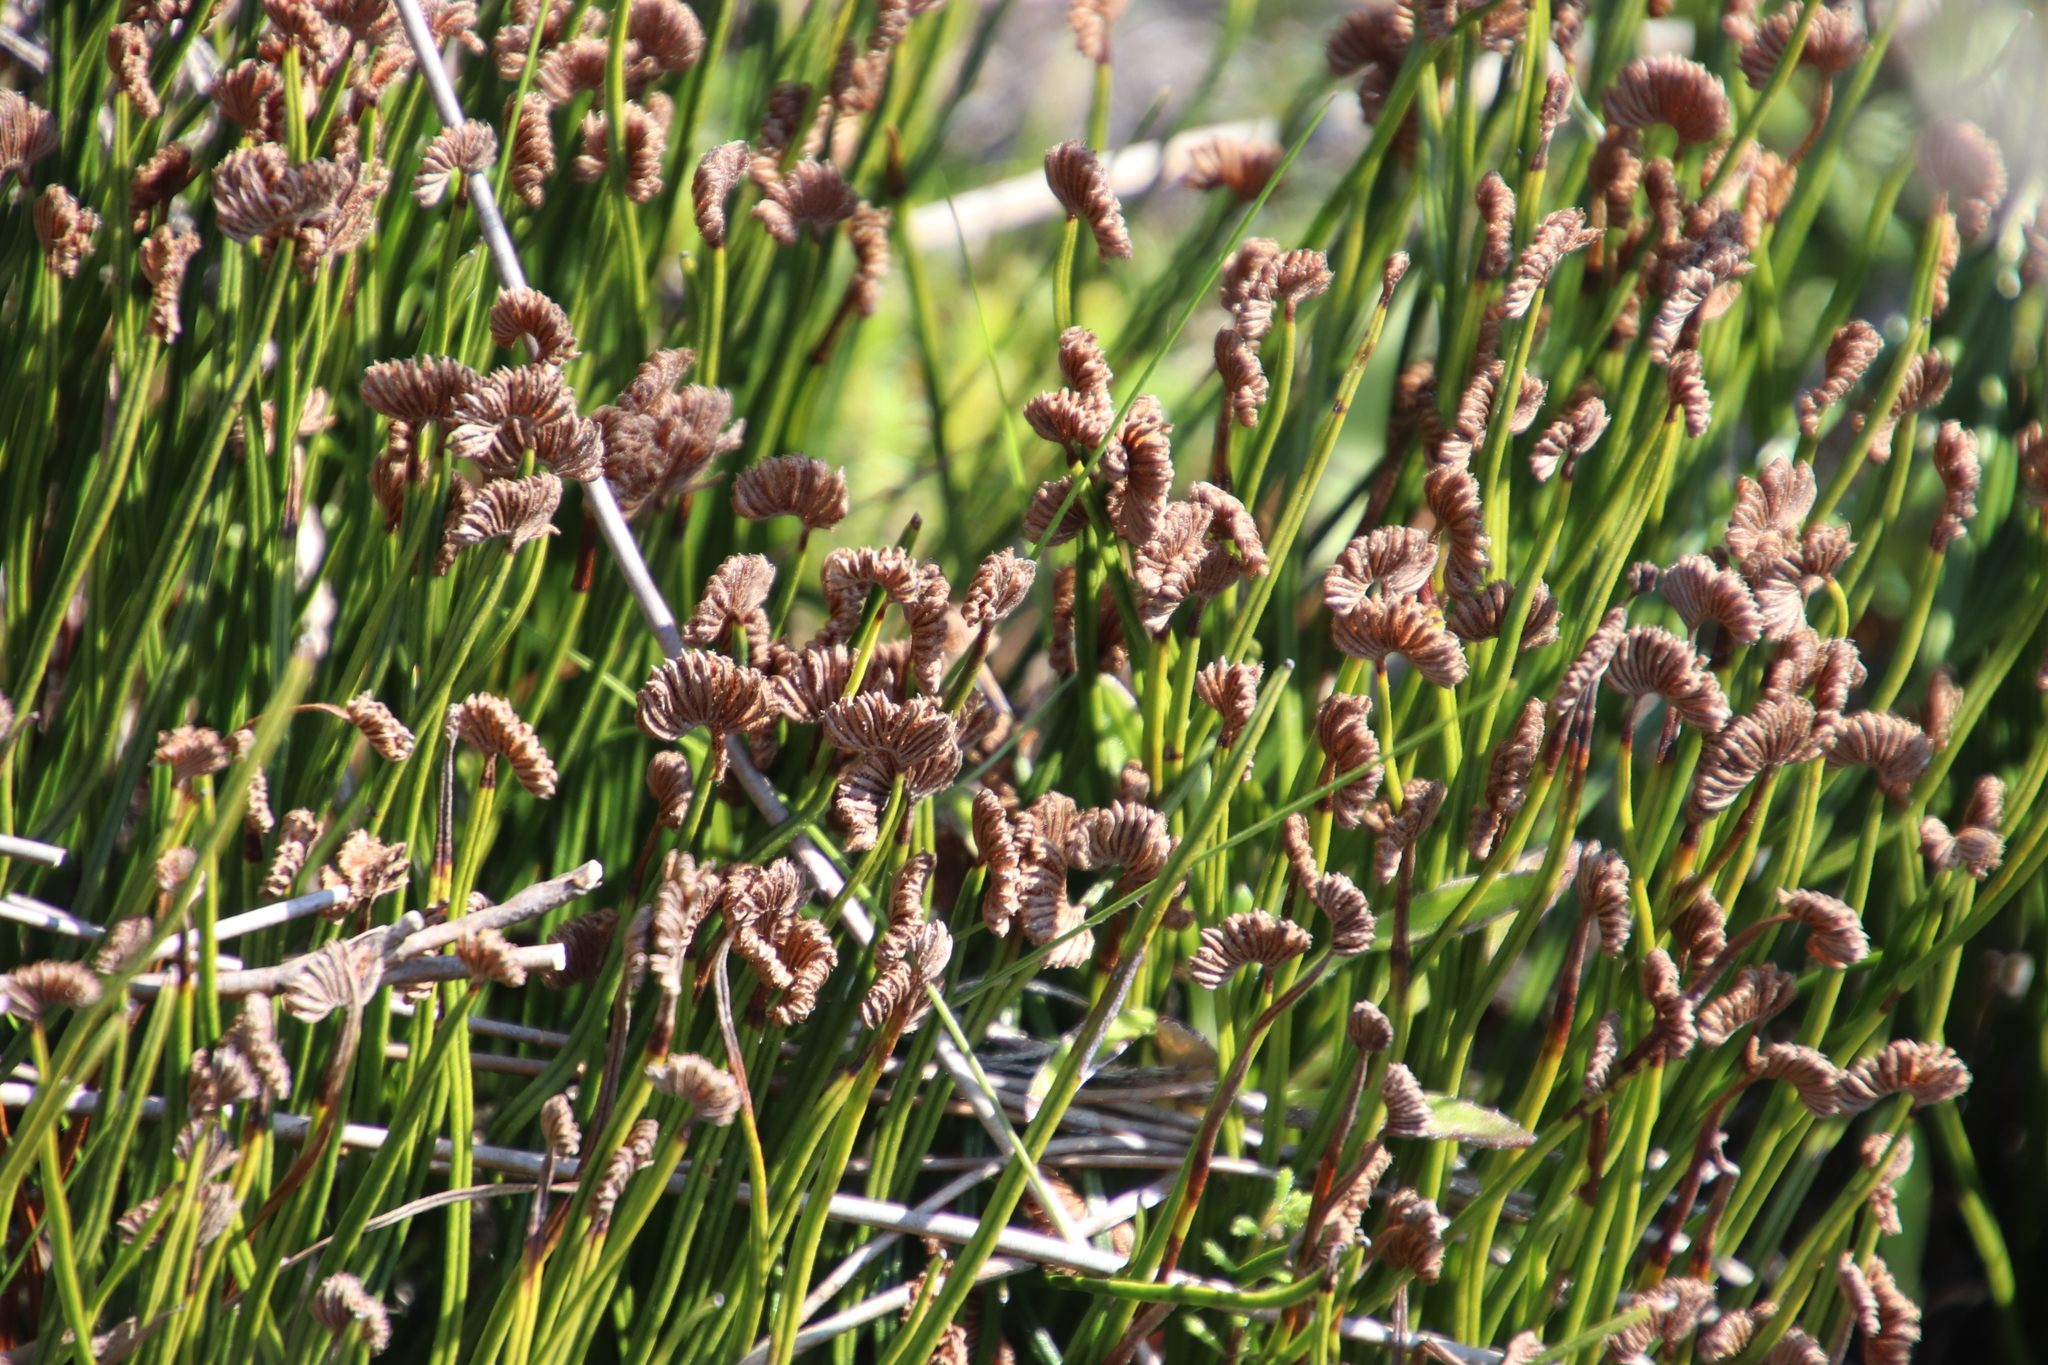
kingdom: Plantae
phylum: Tracheophyta
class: Polypodiopsida
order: Schizaeales
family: Schizaeaceae
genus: Schizaea
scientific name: Schizaea pectinata
